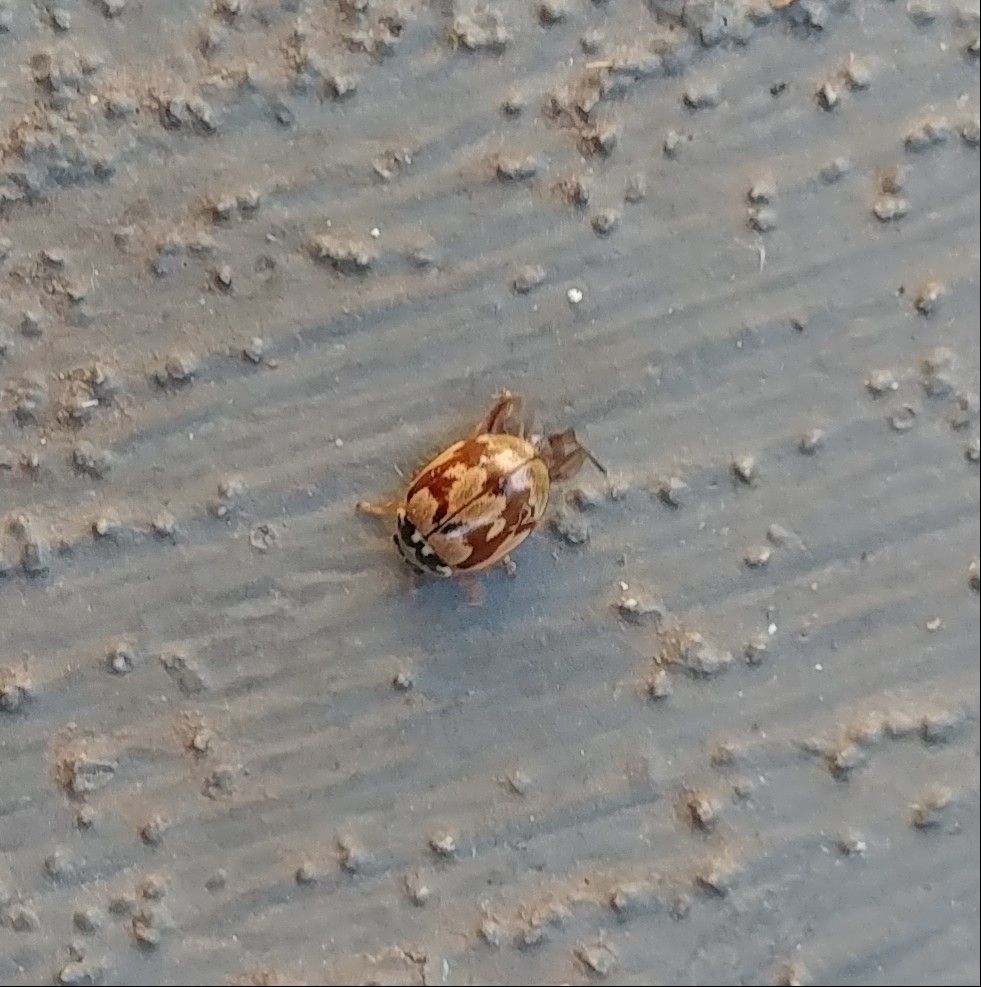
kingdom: Animalia
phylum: Arthropoda
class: Insecta
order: Coleoptera
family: Coccinellidae
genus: Mulsantina
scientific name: Mulsantina picta
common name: Painted ladybird
